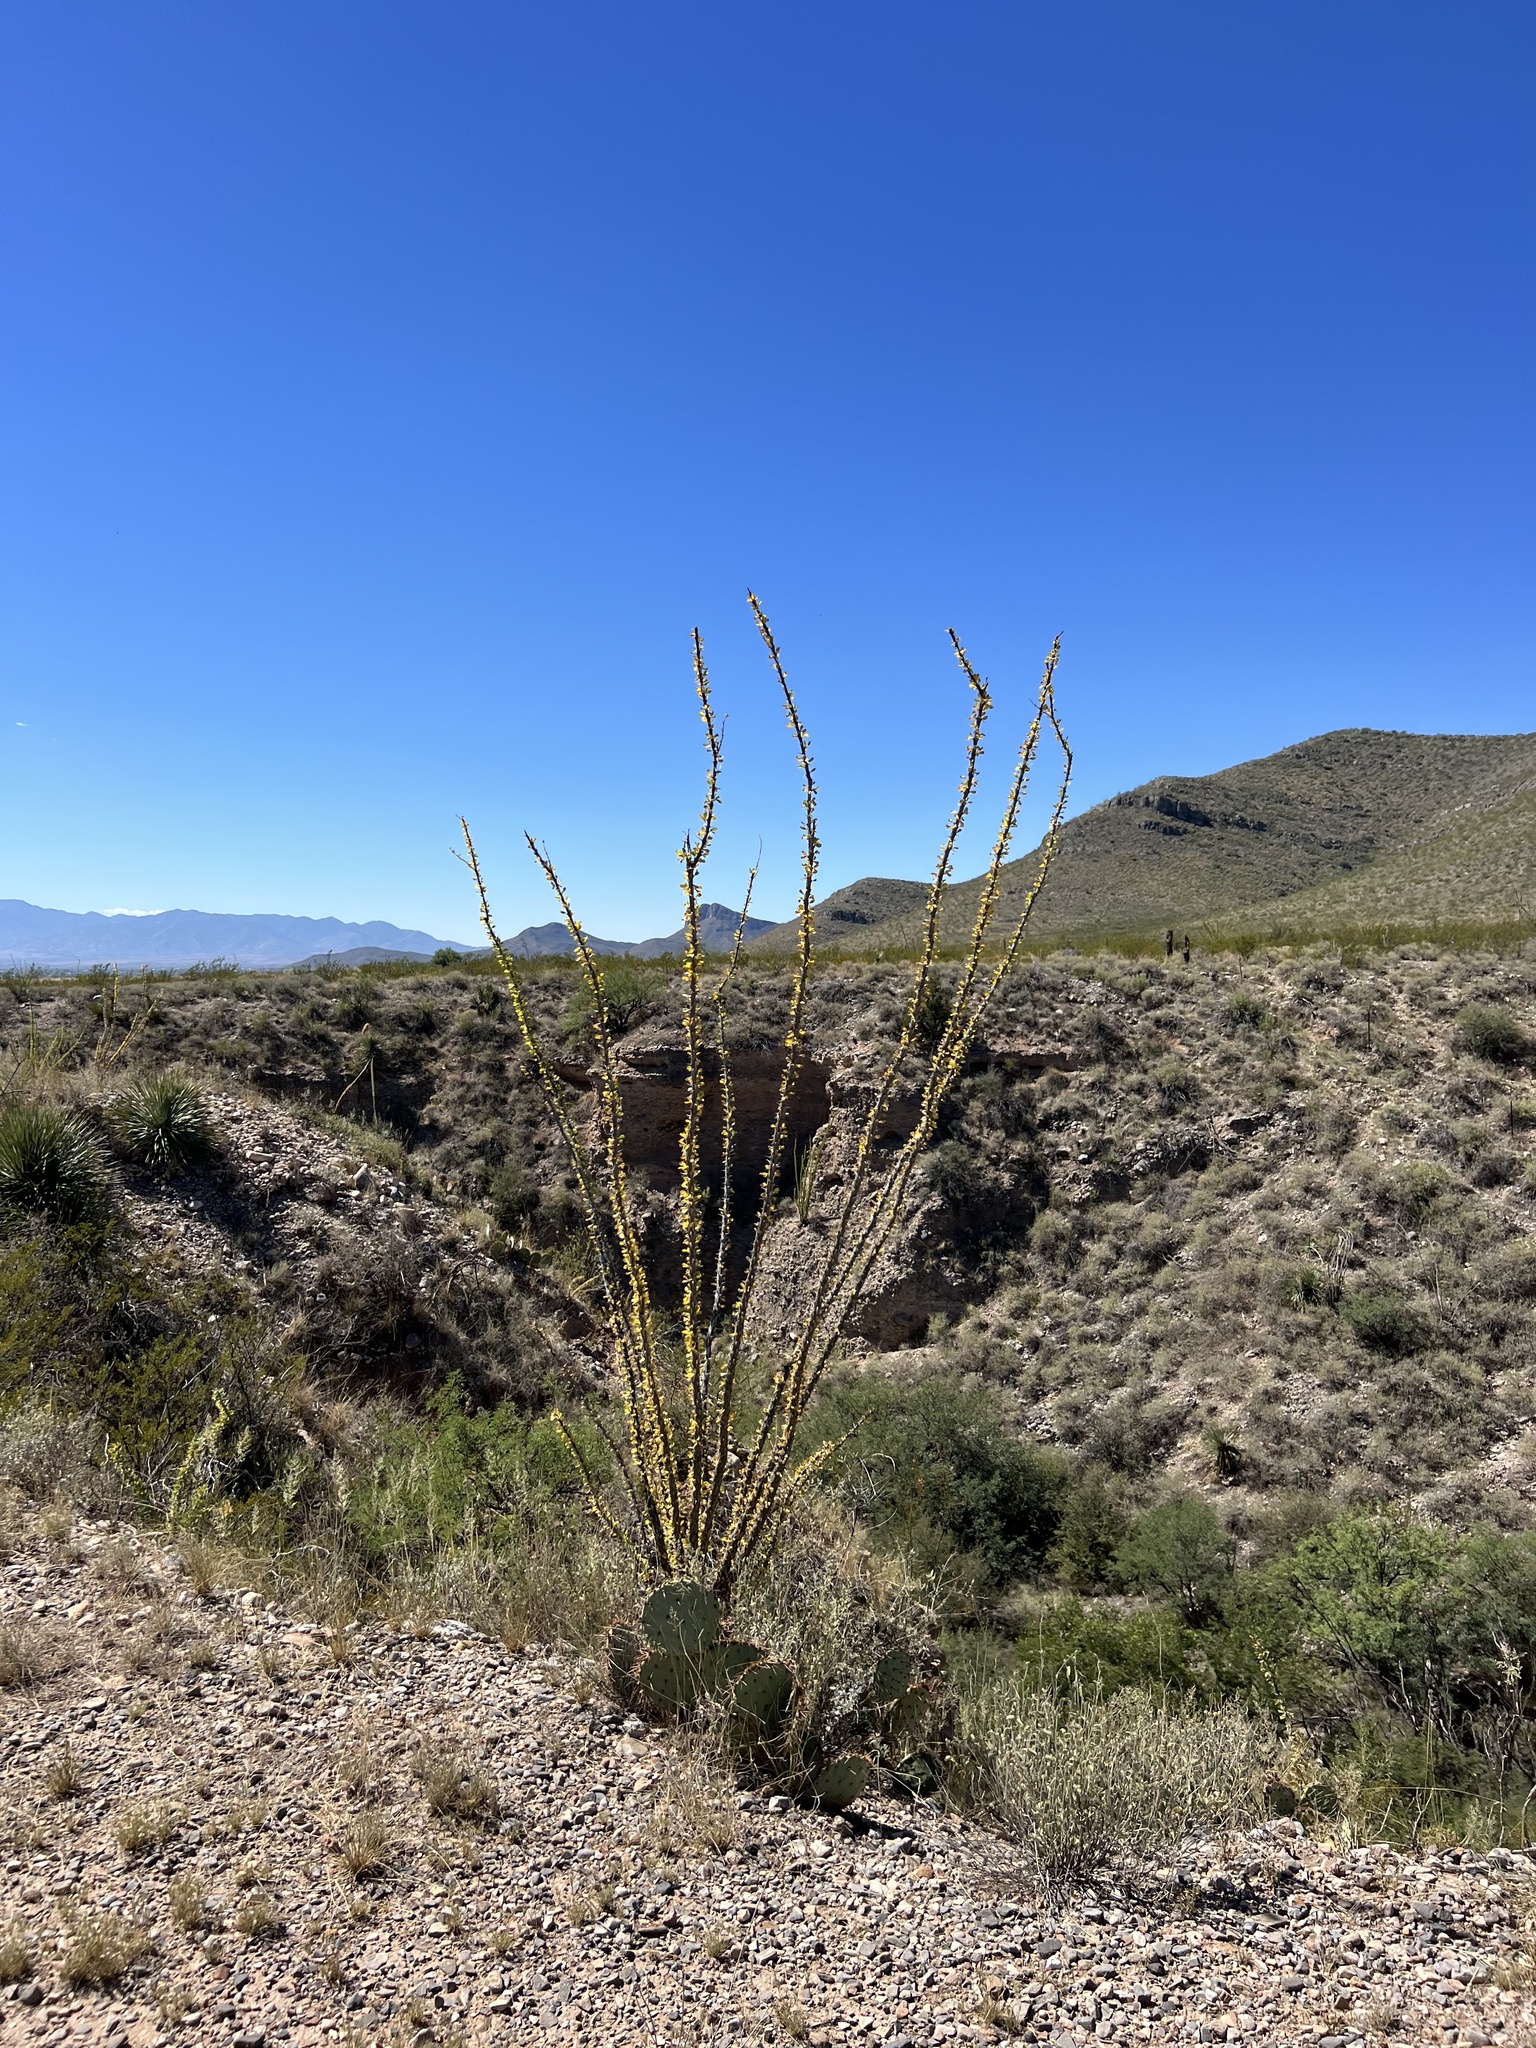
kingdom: Plantae
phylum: Tracheophyta
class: Magnoliopsida
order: Ericales
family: Fouquieriaceae
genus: Fouquieria
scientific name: Fouquieria splendens
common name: Vine-cactus
